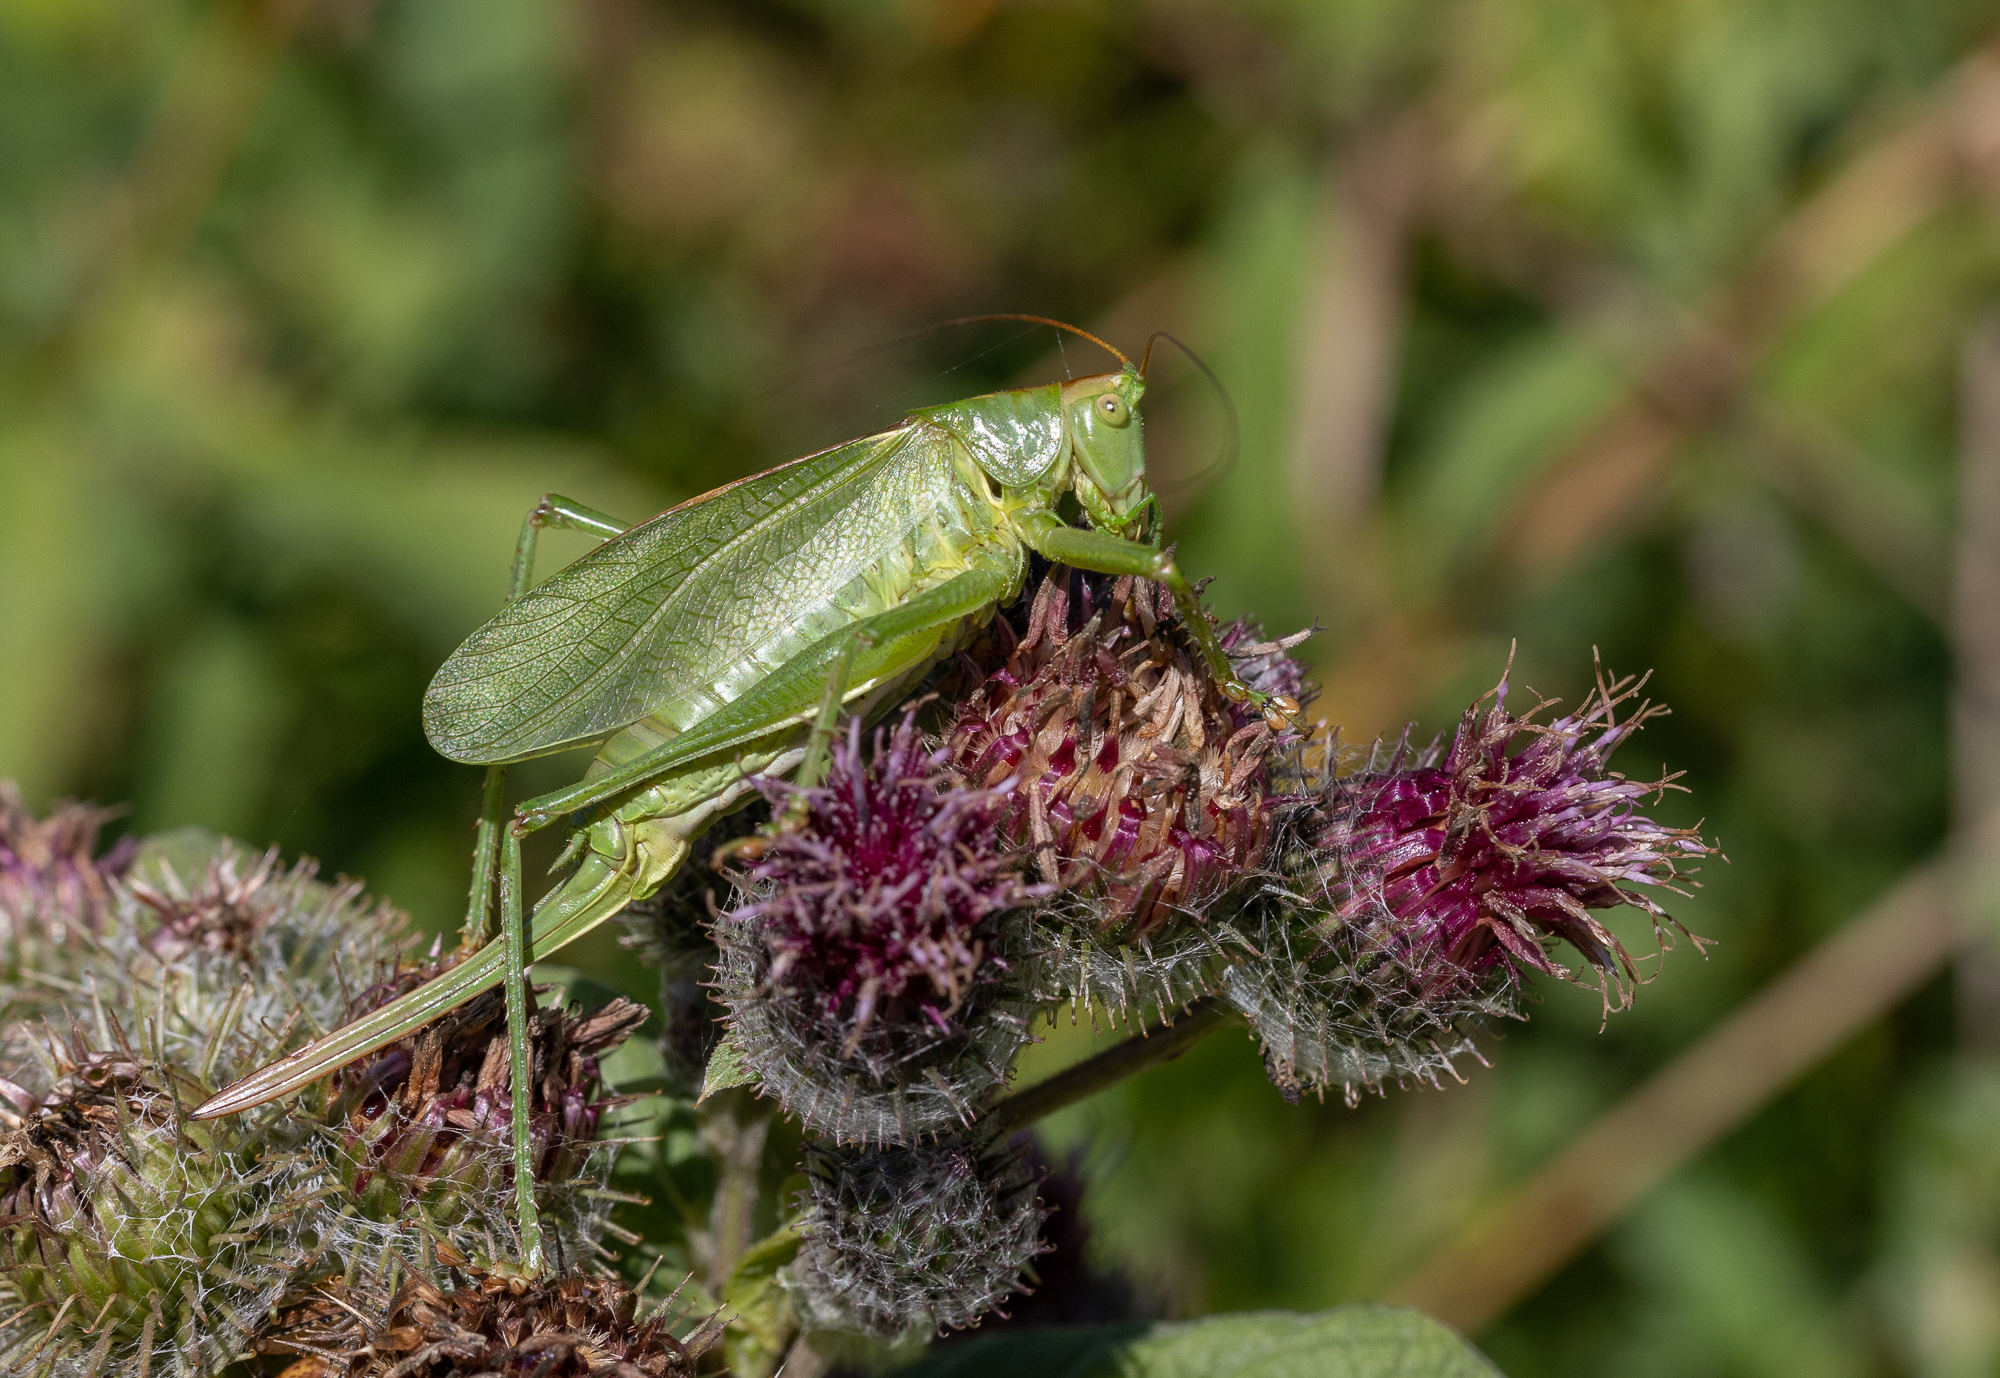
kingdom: Animalia
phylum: Arthropoda
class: Insecta
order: Orthoptera
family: Tettigoniidae
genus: Tettigonia
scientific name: Tettigonia cantans
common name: Upland green bush-cricket
